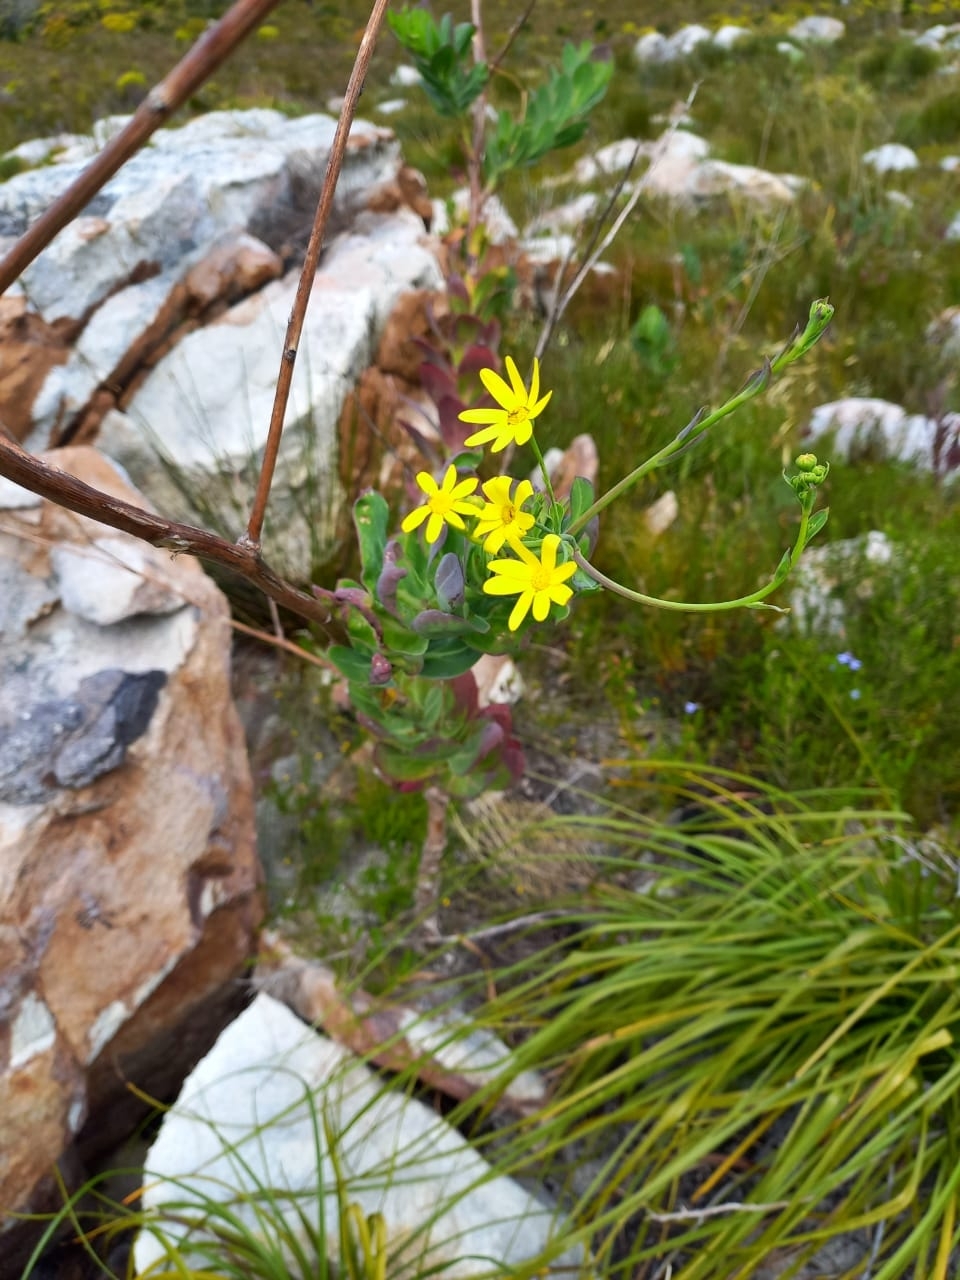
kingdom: Plantae
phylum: Tracheophyta
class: Magnoliopsida
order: Asterales
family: Asteraceae
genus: Othonna
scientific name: Othonna quinquedentata
